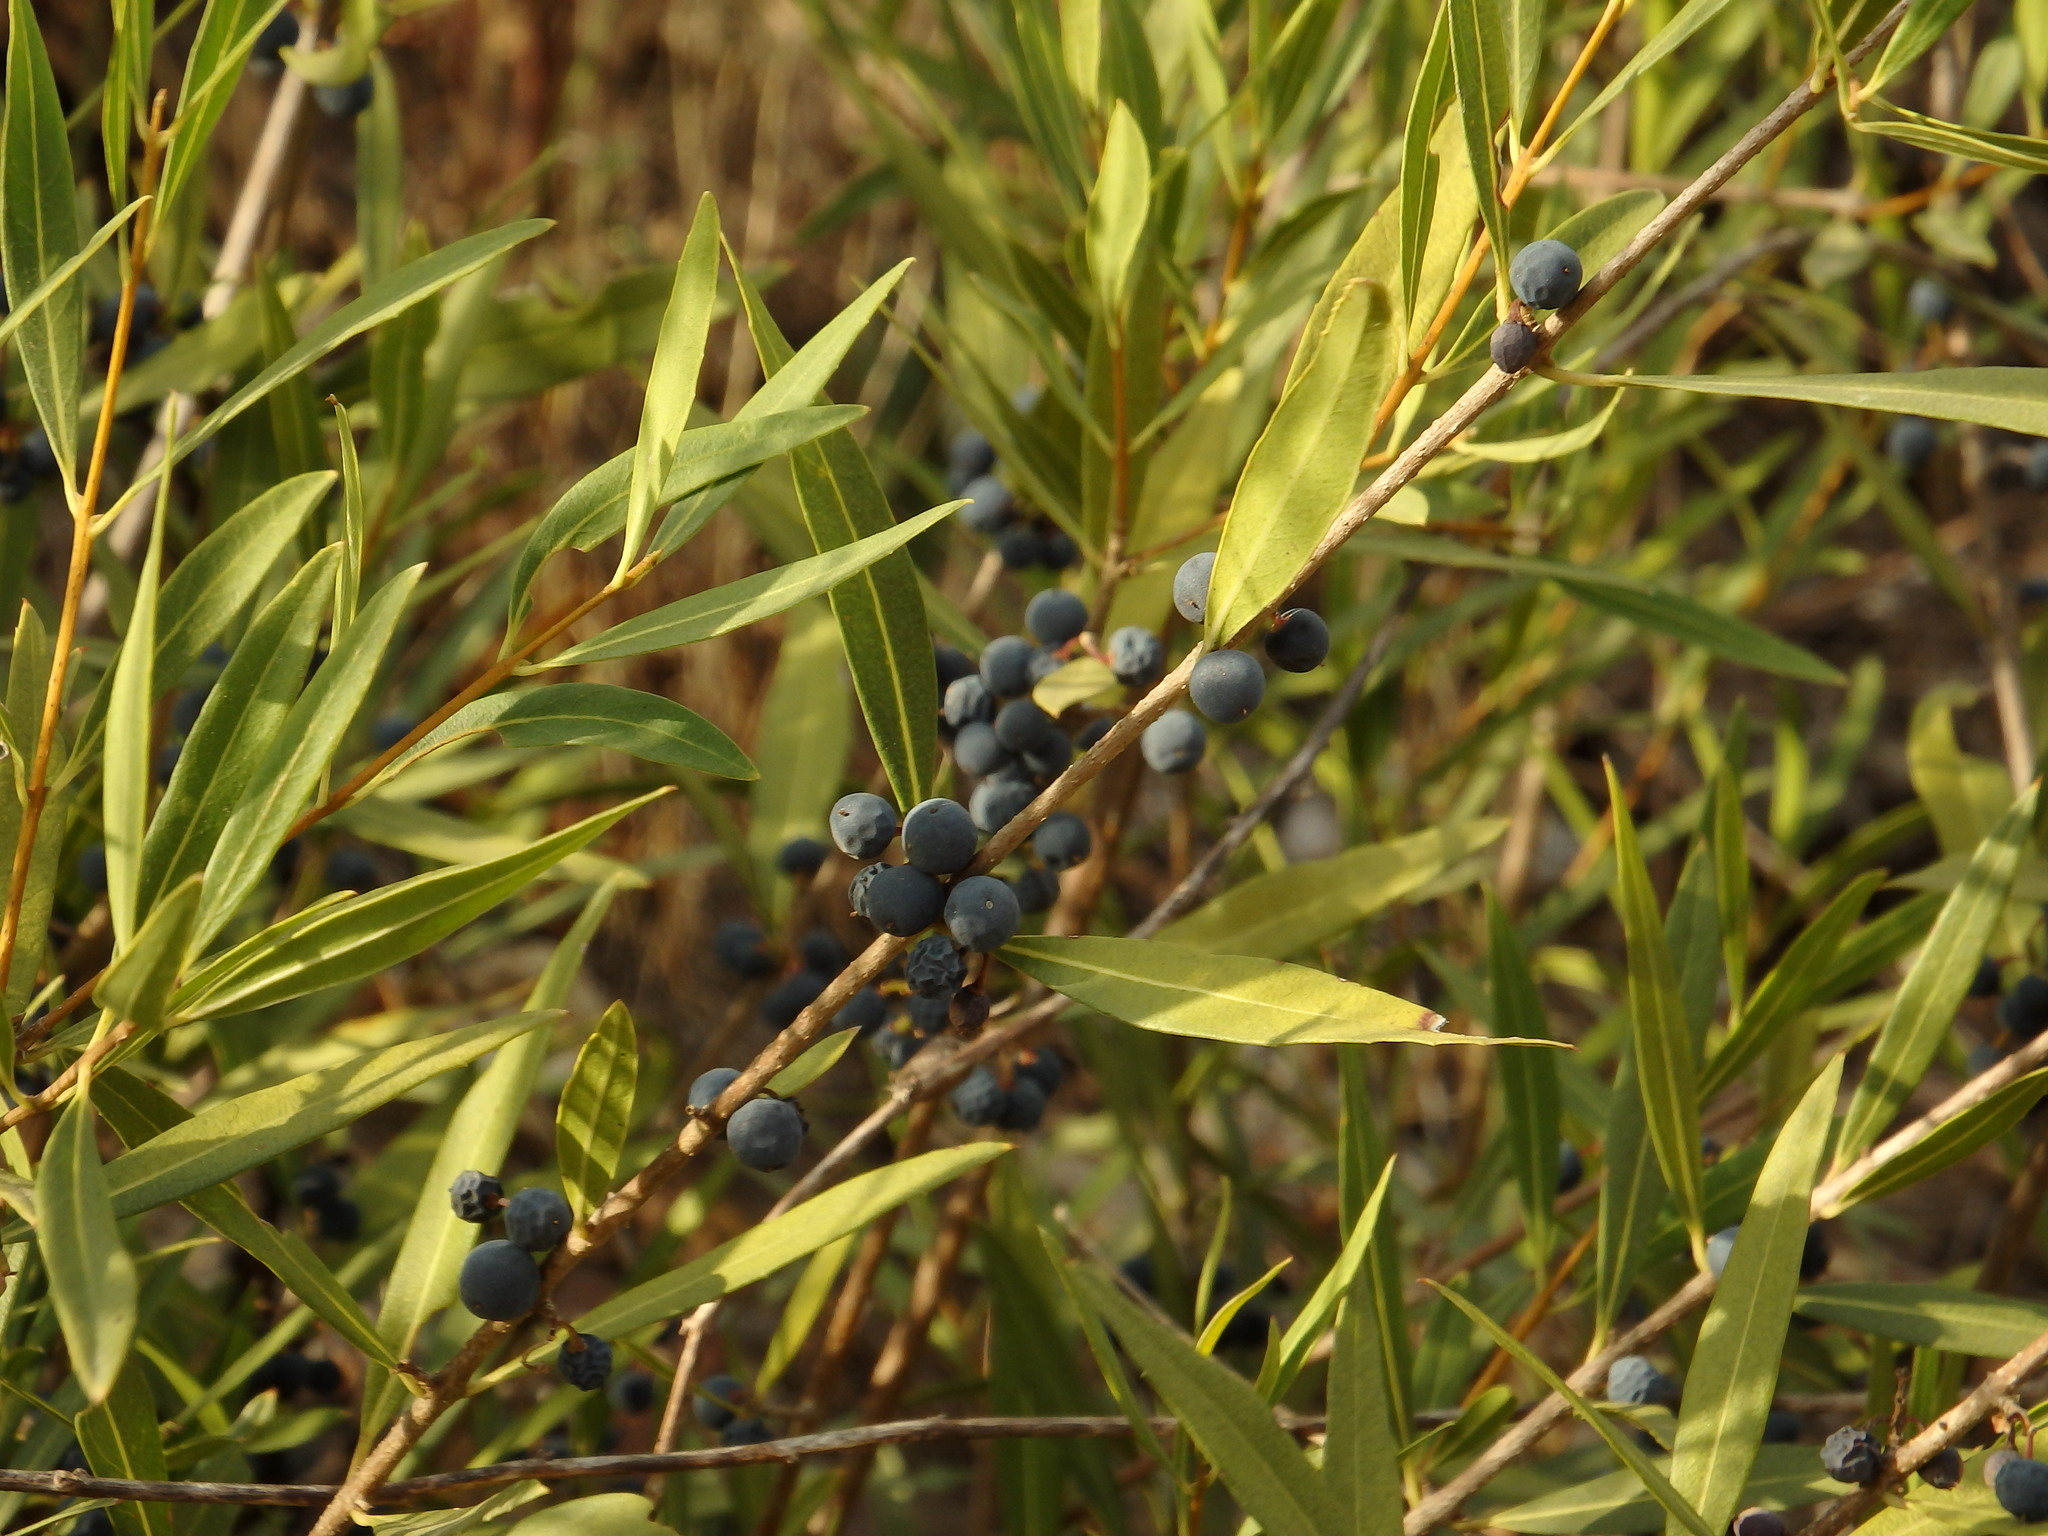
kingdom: Plantae
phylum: Tracheophyta
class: Magnoliopsida
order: Lamiales
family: Oleaceae
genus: Phillyrea
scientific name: Phillyrea angustifolia
